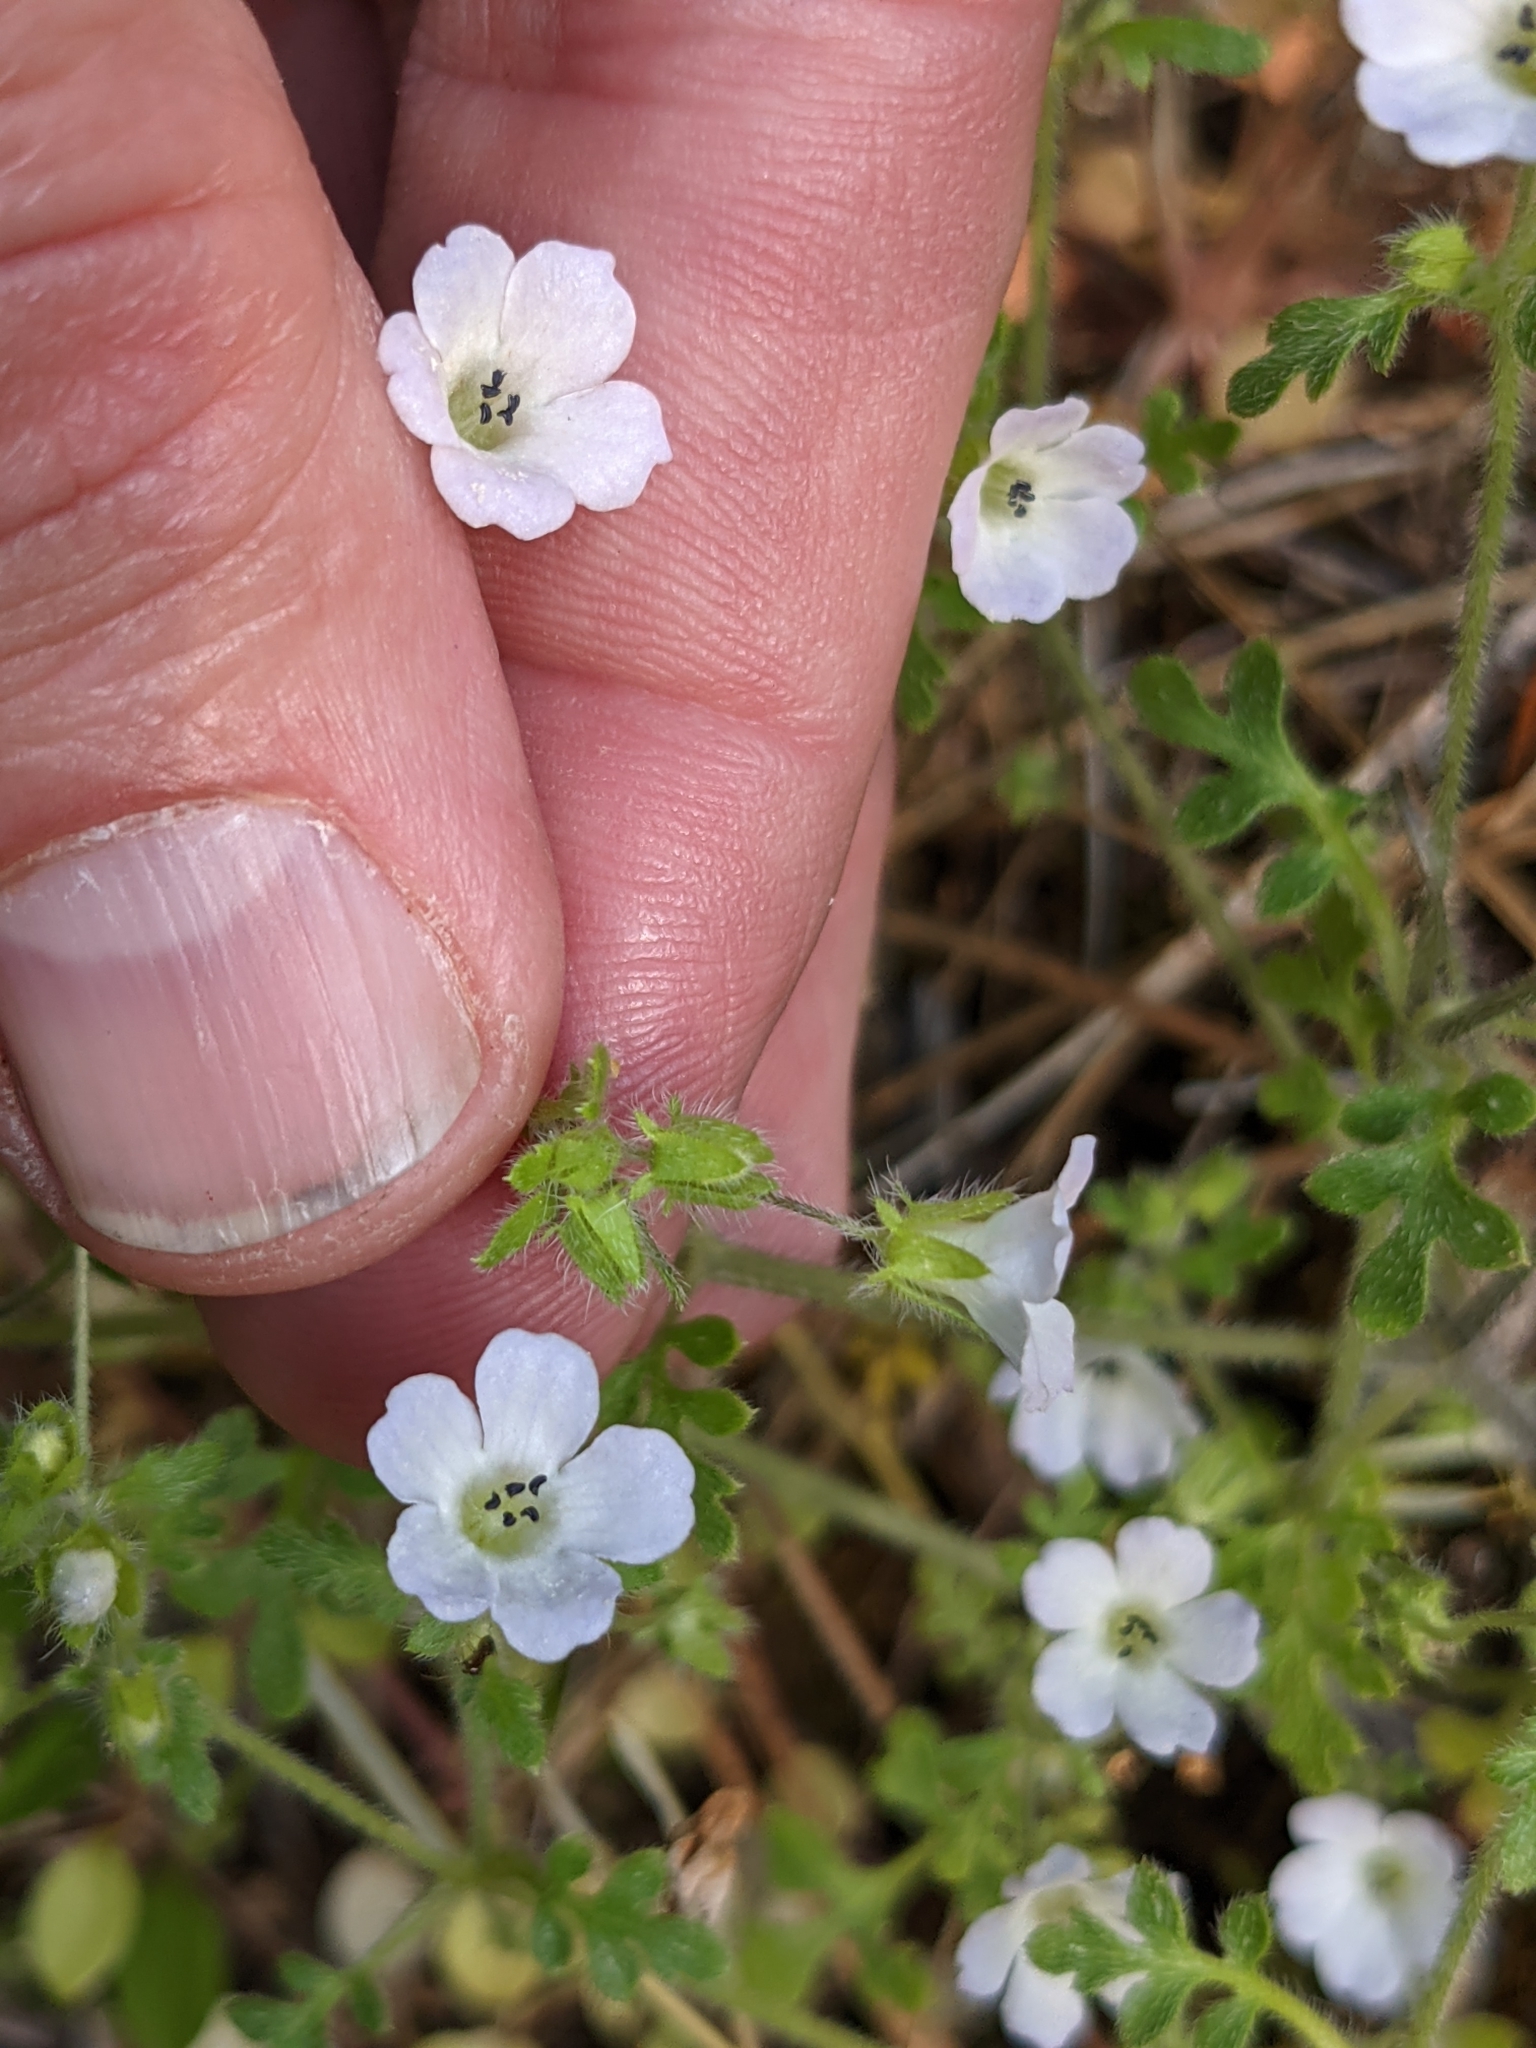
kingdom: Plantae
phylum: Tracheophyta
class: Magnoliopsida
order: Boraginales
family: Hydrophyllaceae
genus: Nemophila
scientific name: Nemophila heterophylla
